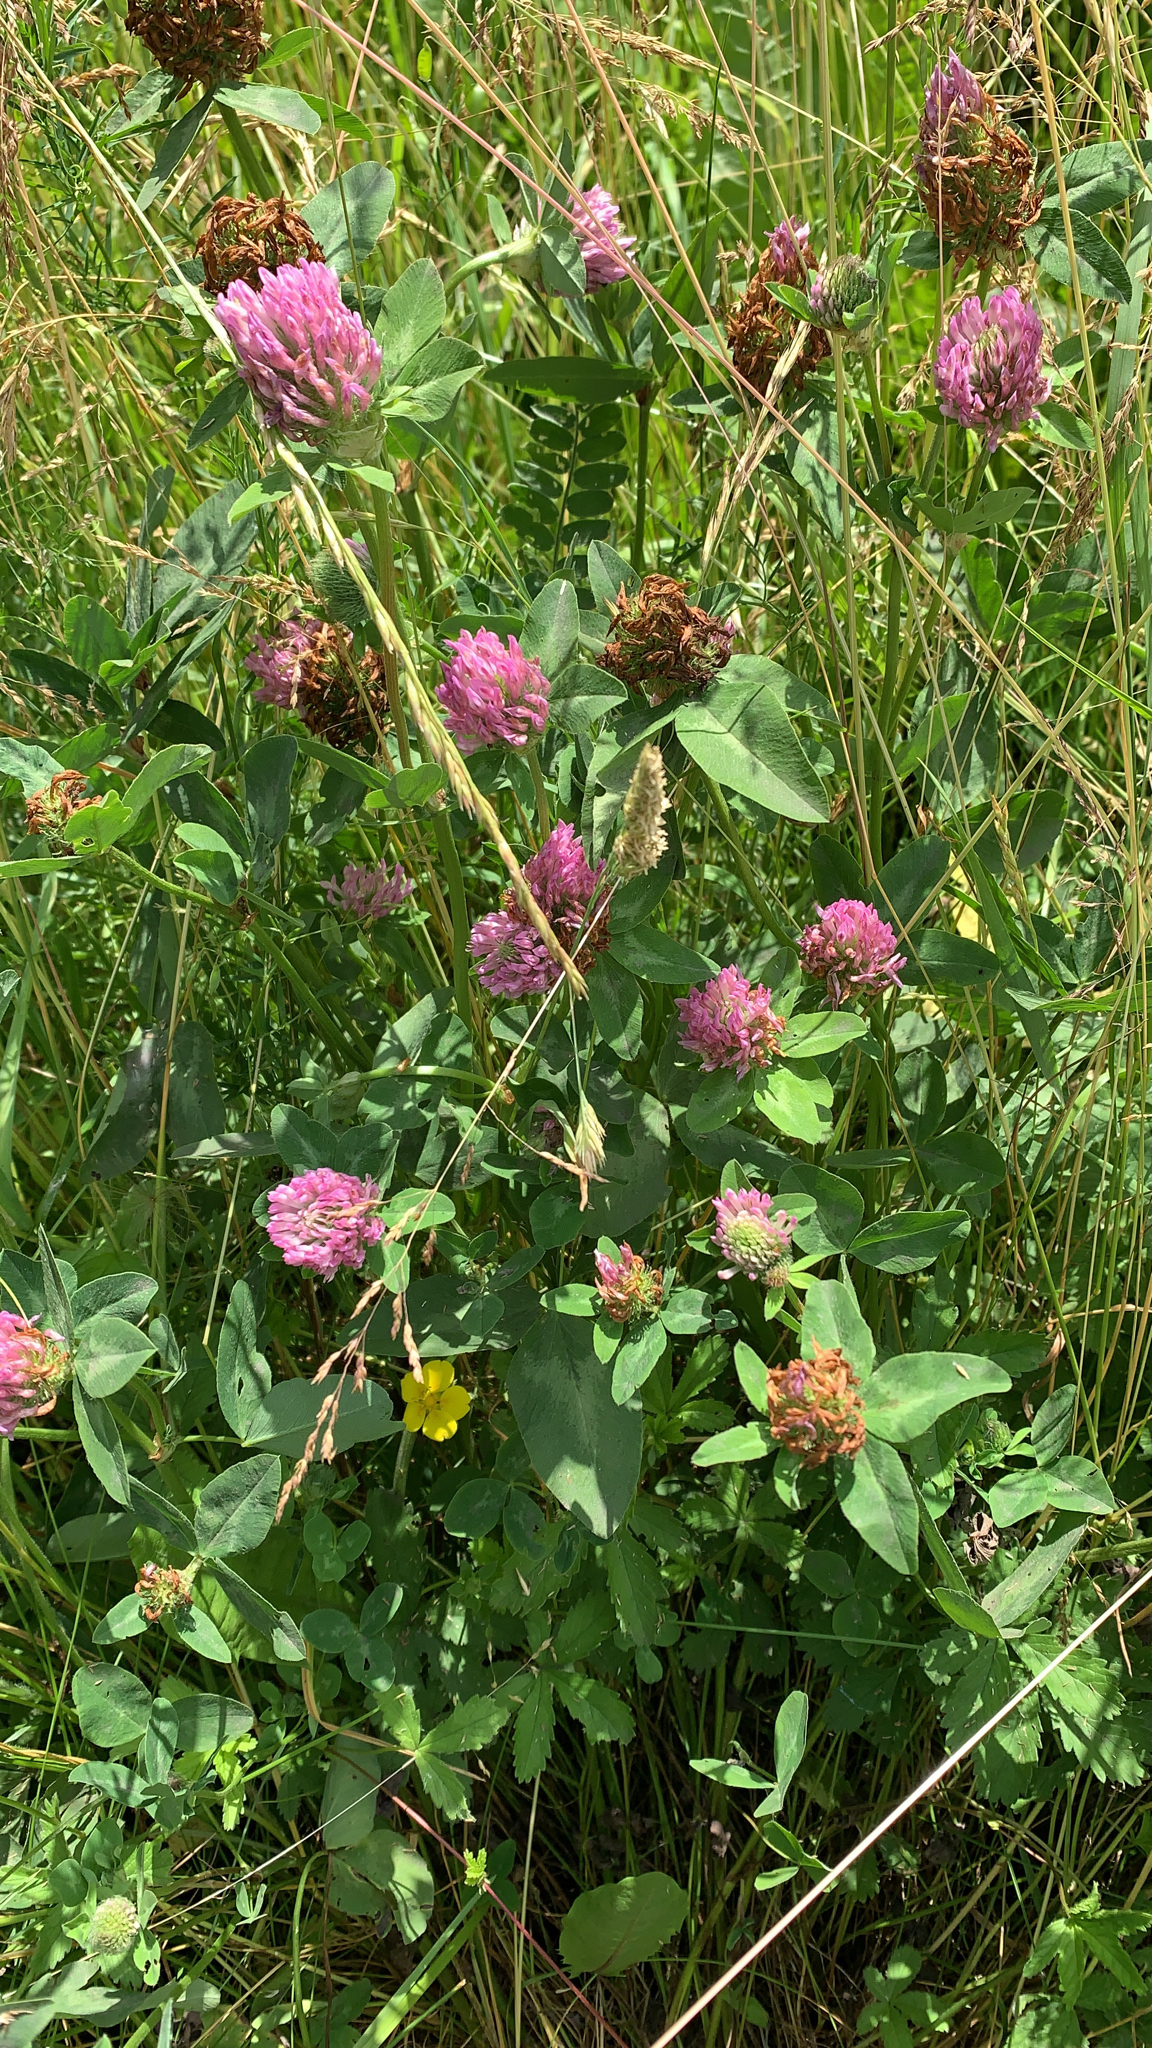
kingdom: Plantae
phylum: Tracheophyta
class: Magnoliopsida
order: Fabales
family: Fabaceae
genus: Trifolium
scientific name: Trifolium pratense
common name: Red clover
